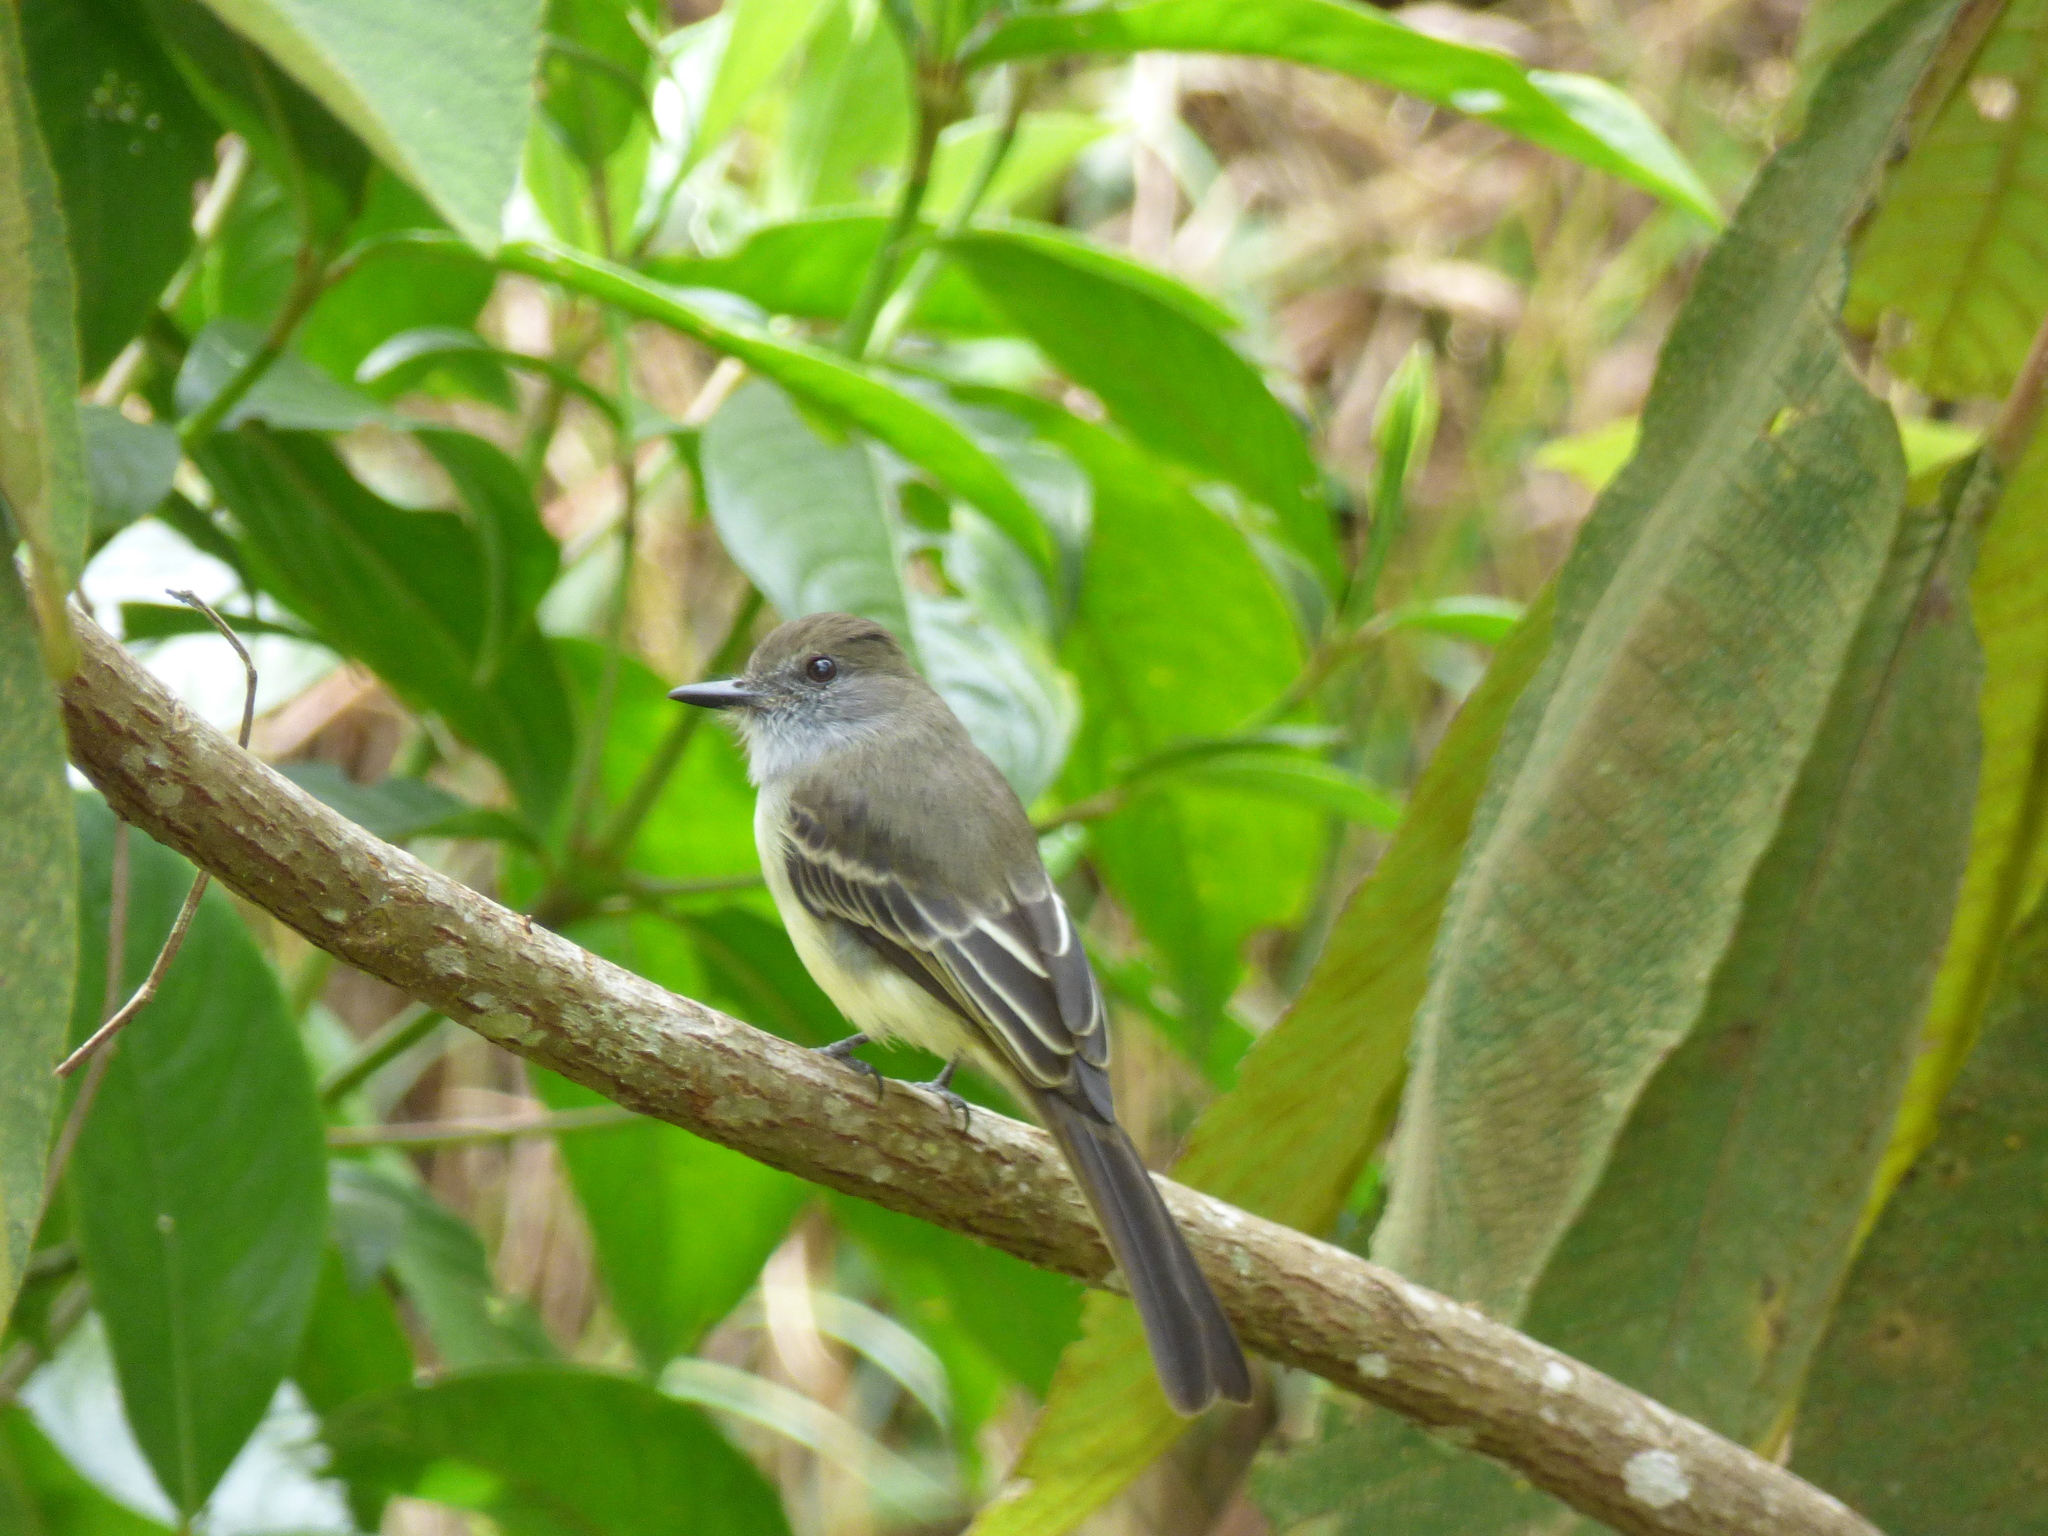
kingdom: Animalia
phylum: Chordata
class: Aves
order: Passeriformes
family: Tyrannidae
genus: Myiarchus
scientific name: Myiarchus cephalotes
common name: Pale-edged flycatcher
